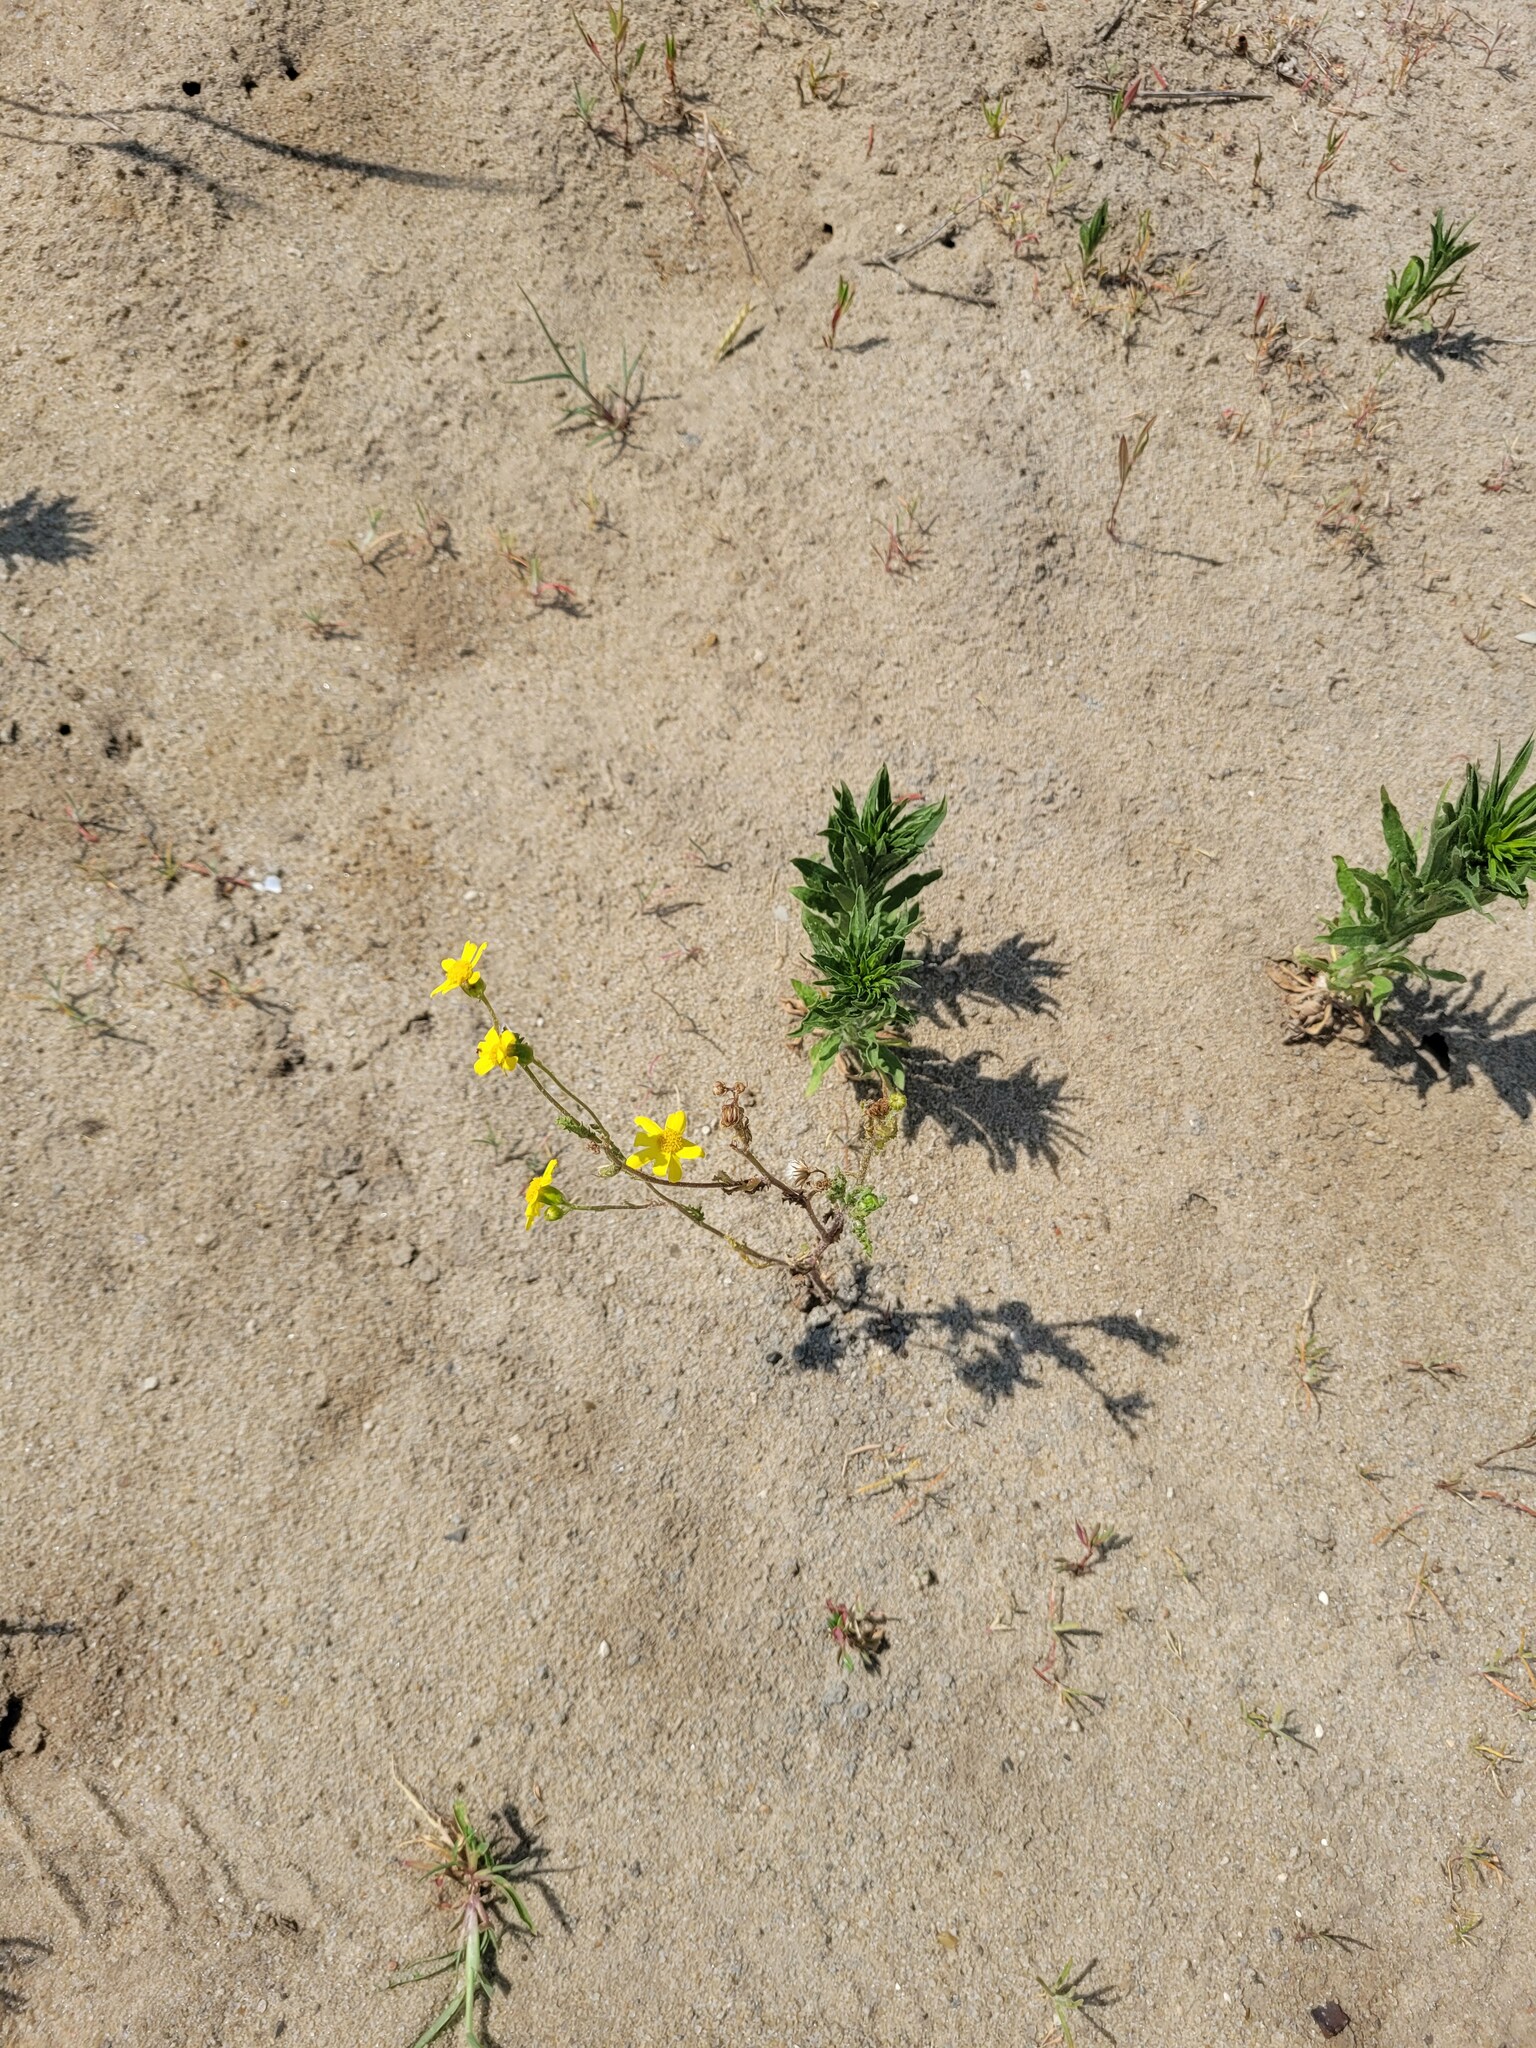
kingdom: Plantae
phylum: Tracheophyta
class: Magnoliopsida
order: Asterales
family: Asteraceae
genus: Senecio
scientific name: Senecio vernalis
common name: Eastern groundsel
